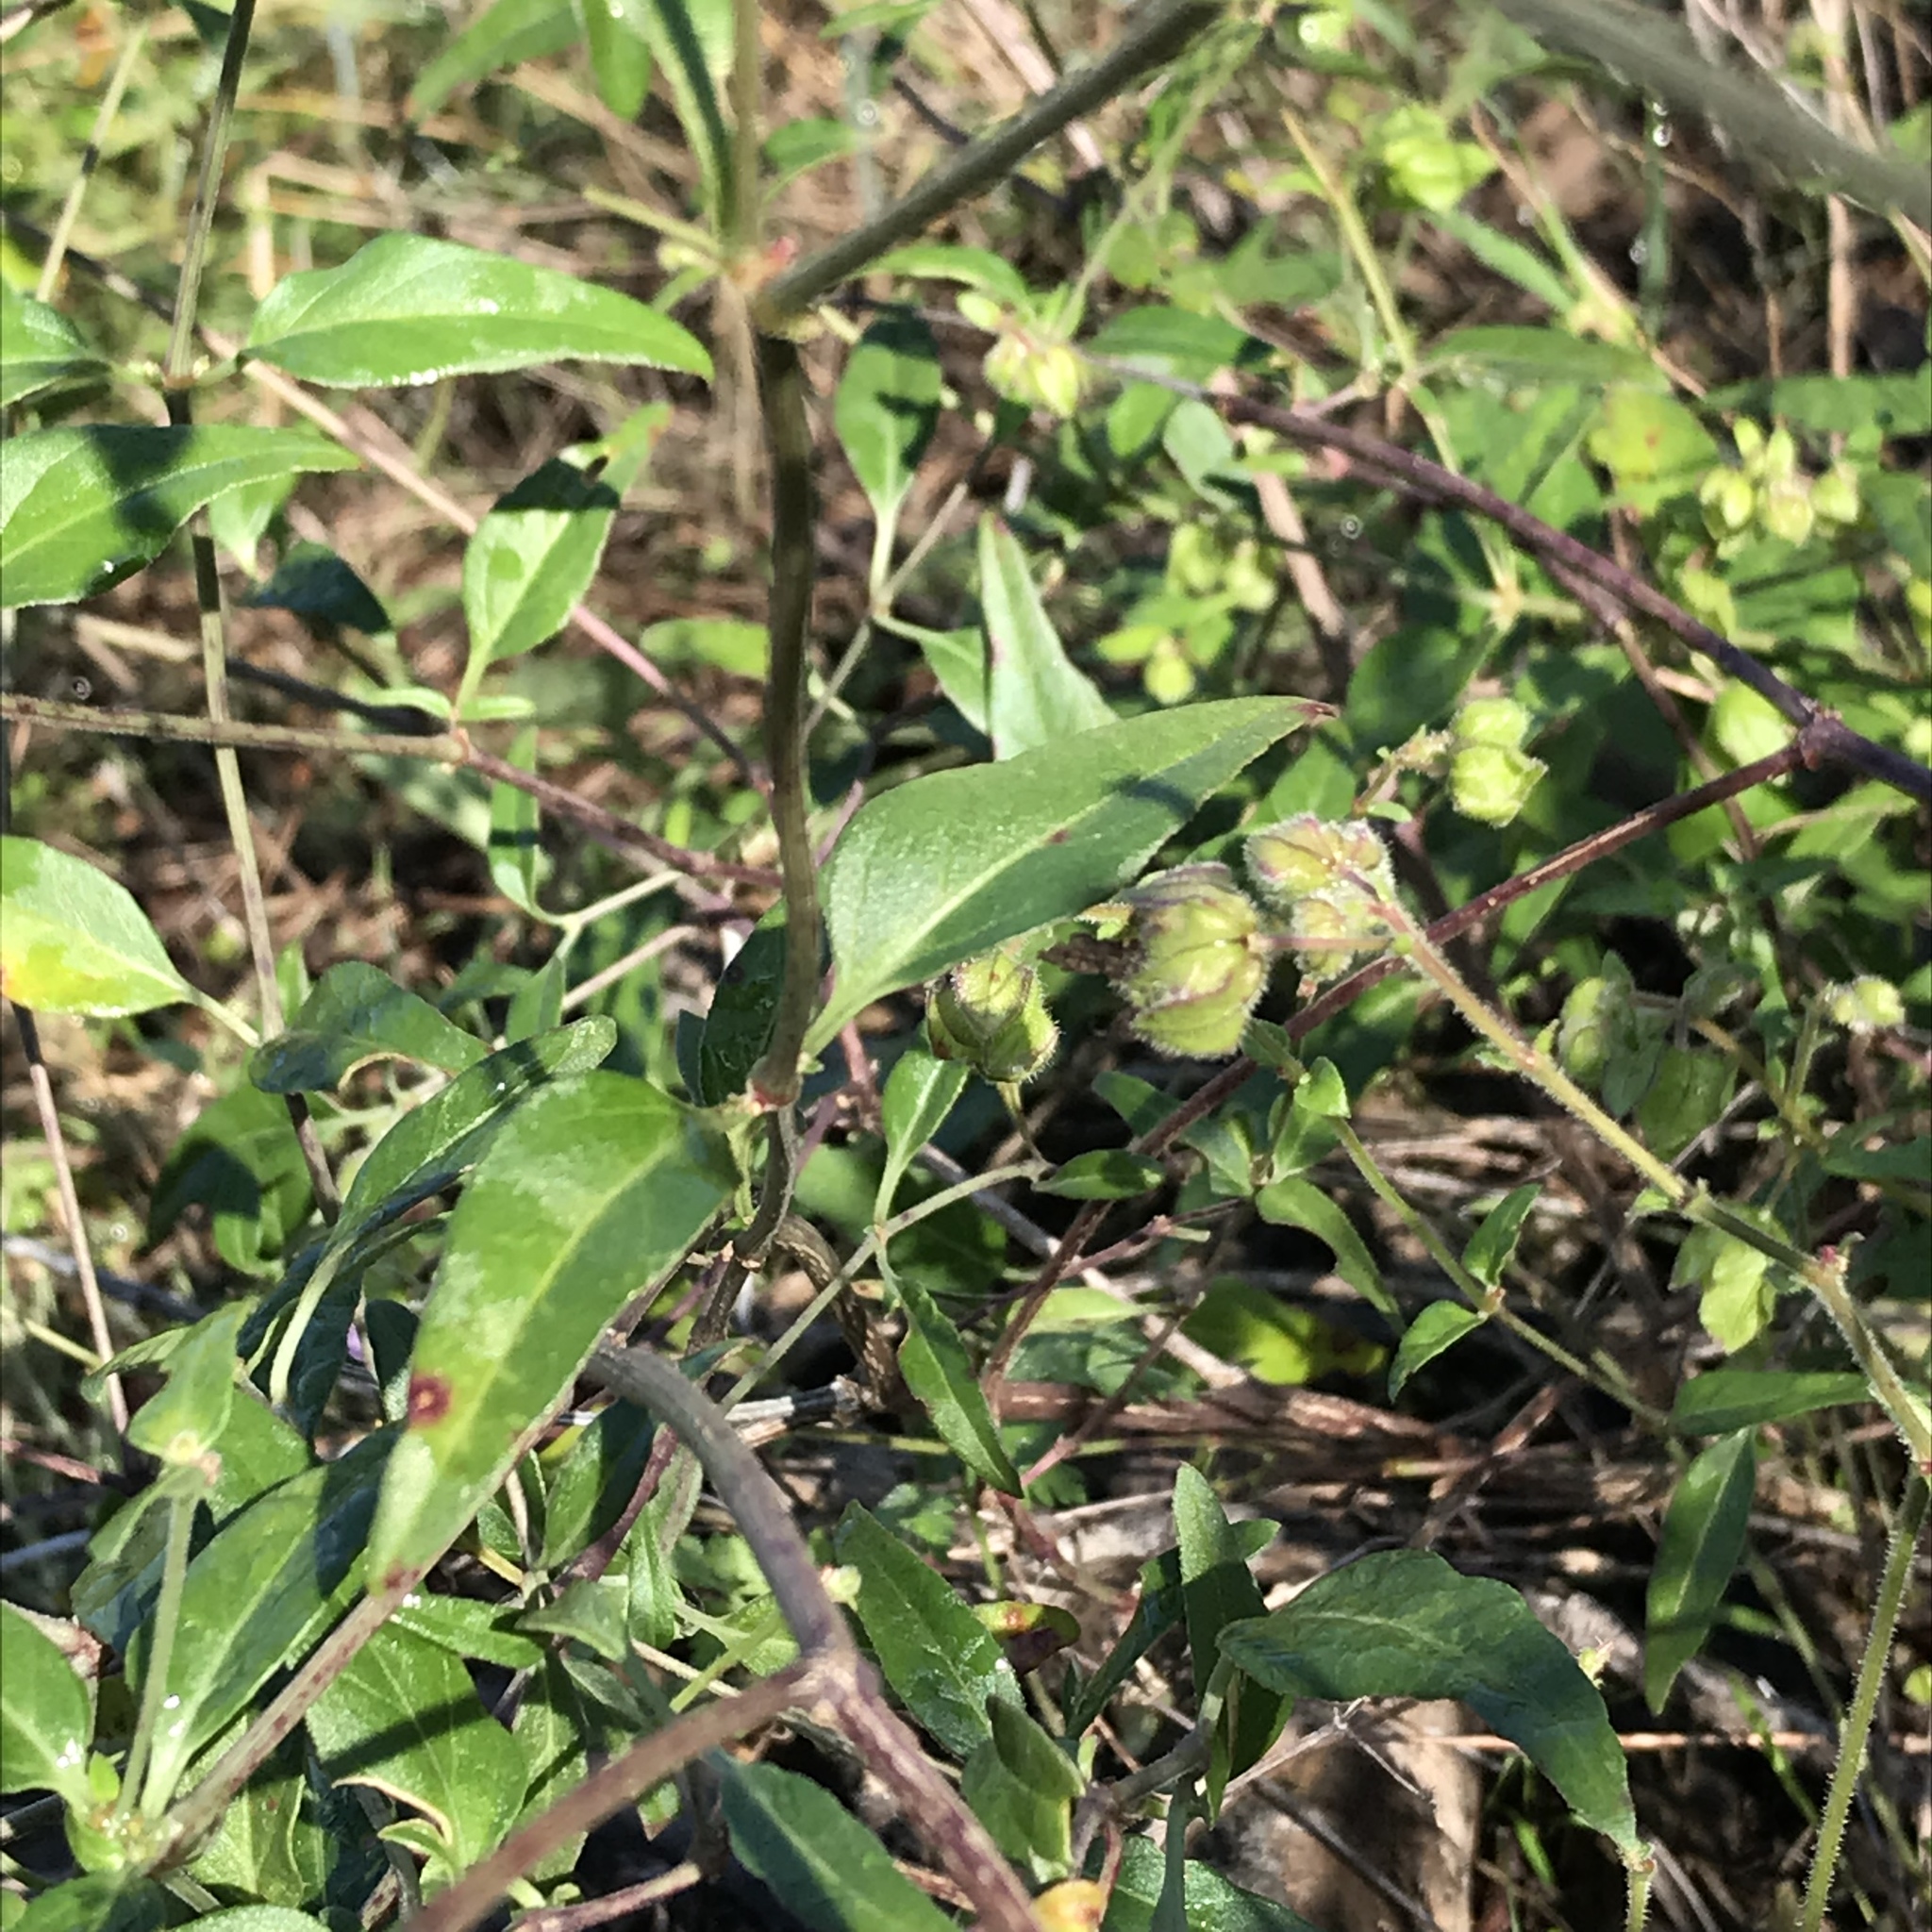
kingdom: Plantae
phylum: Tracheophyta
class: Magnoliopsida
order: Caryophyllales
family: Nyctaginaceae
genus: Mirabilis
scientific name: Mirabilis albida
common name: Hairy four-o'clock
